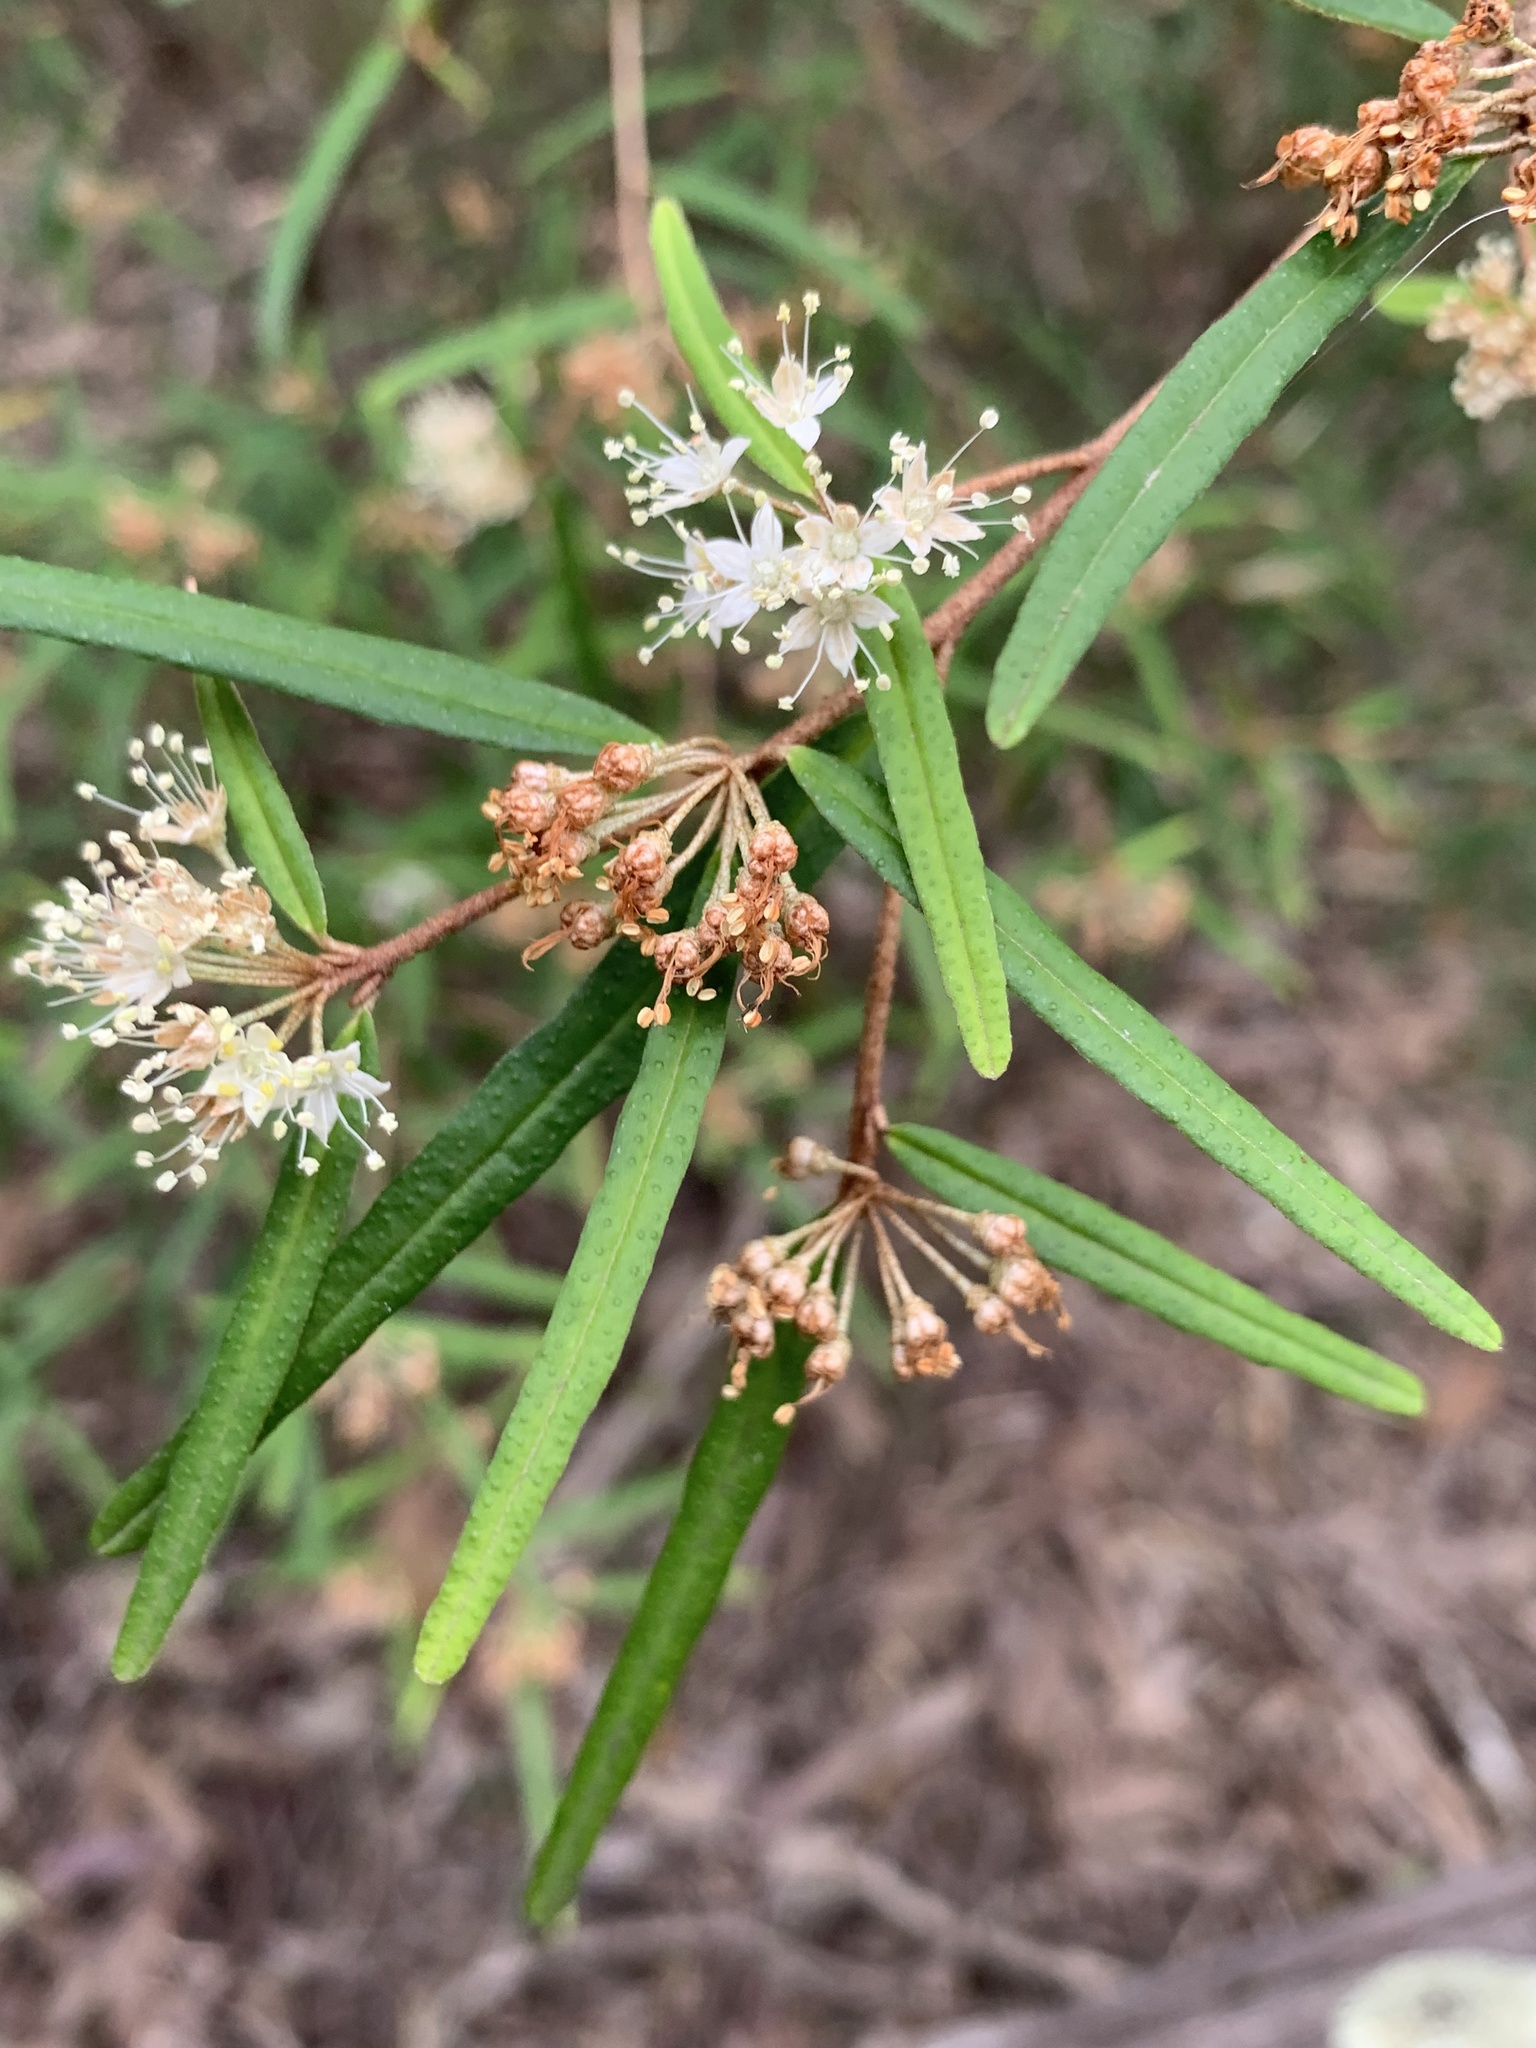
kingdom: Plantae
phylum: Tracheophyta
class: Magnoliopsida
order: Sapindales
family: Rutaceae
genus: Phebalium
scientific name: Phebalium squamulosum
